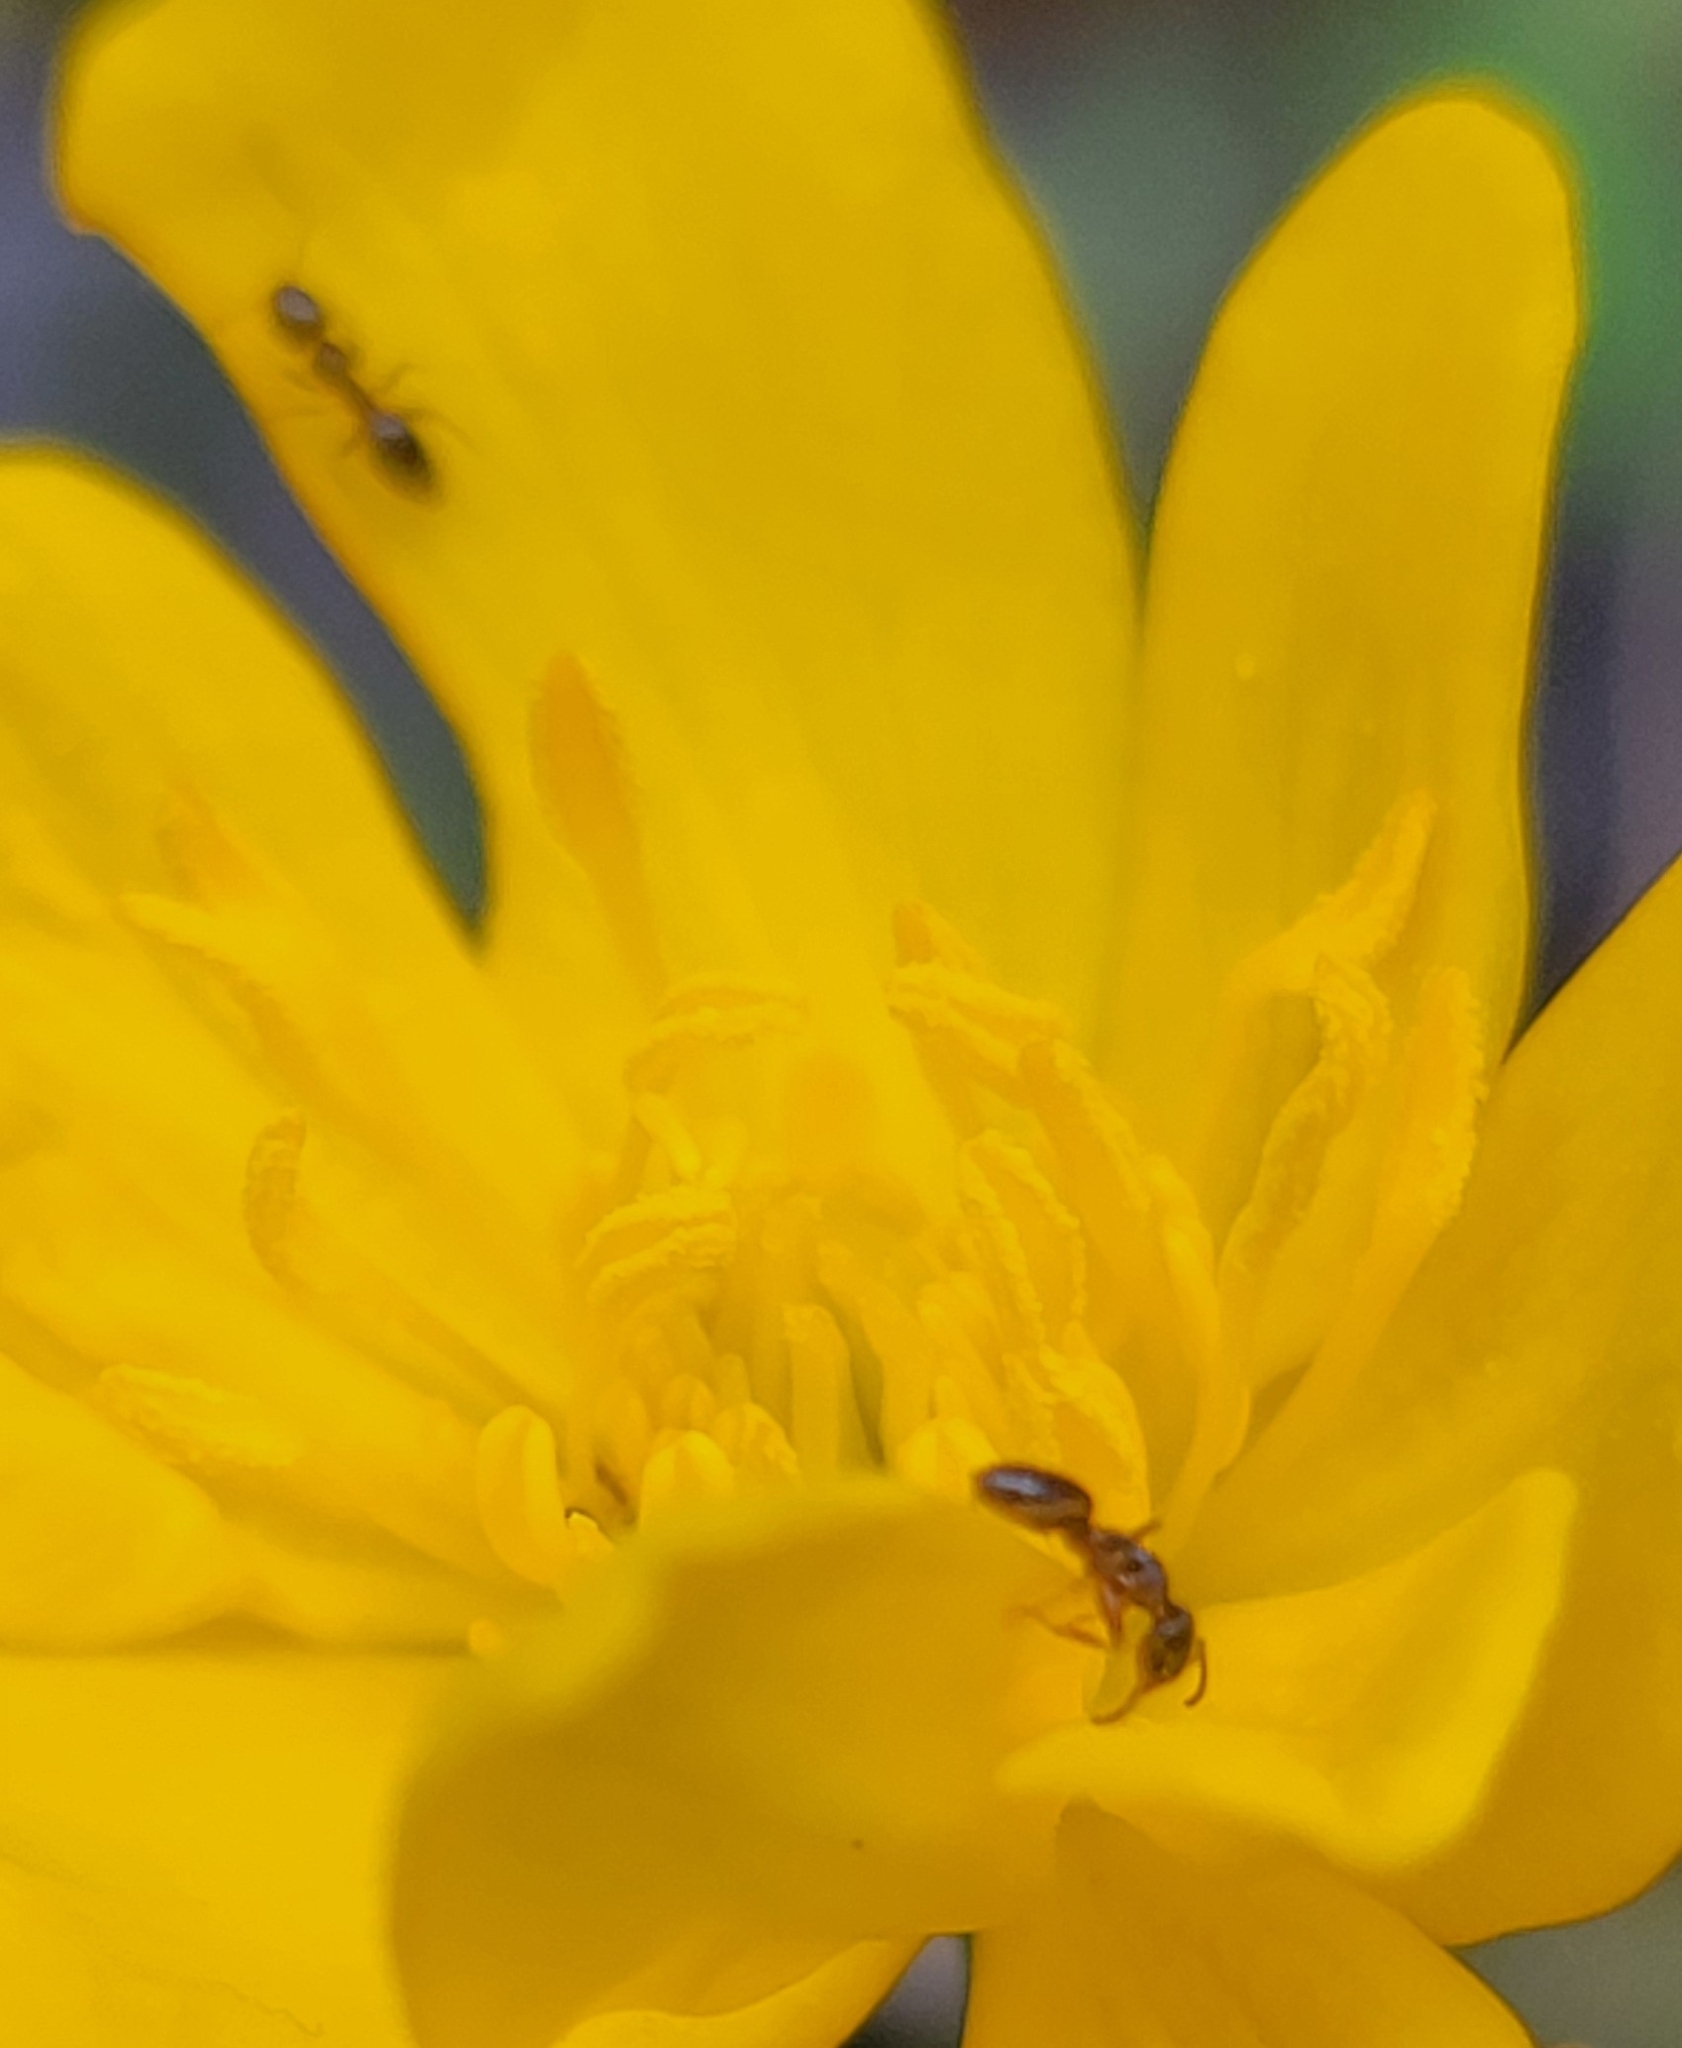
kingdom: Animalia
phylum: Arthropoda
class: Insecta
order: Hymenoptera
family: Formicidae
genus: Tapinoma
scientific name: Tapinoma sessile
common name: Odorous house ant
